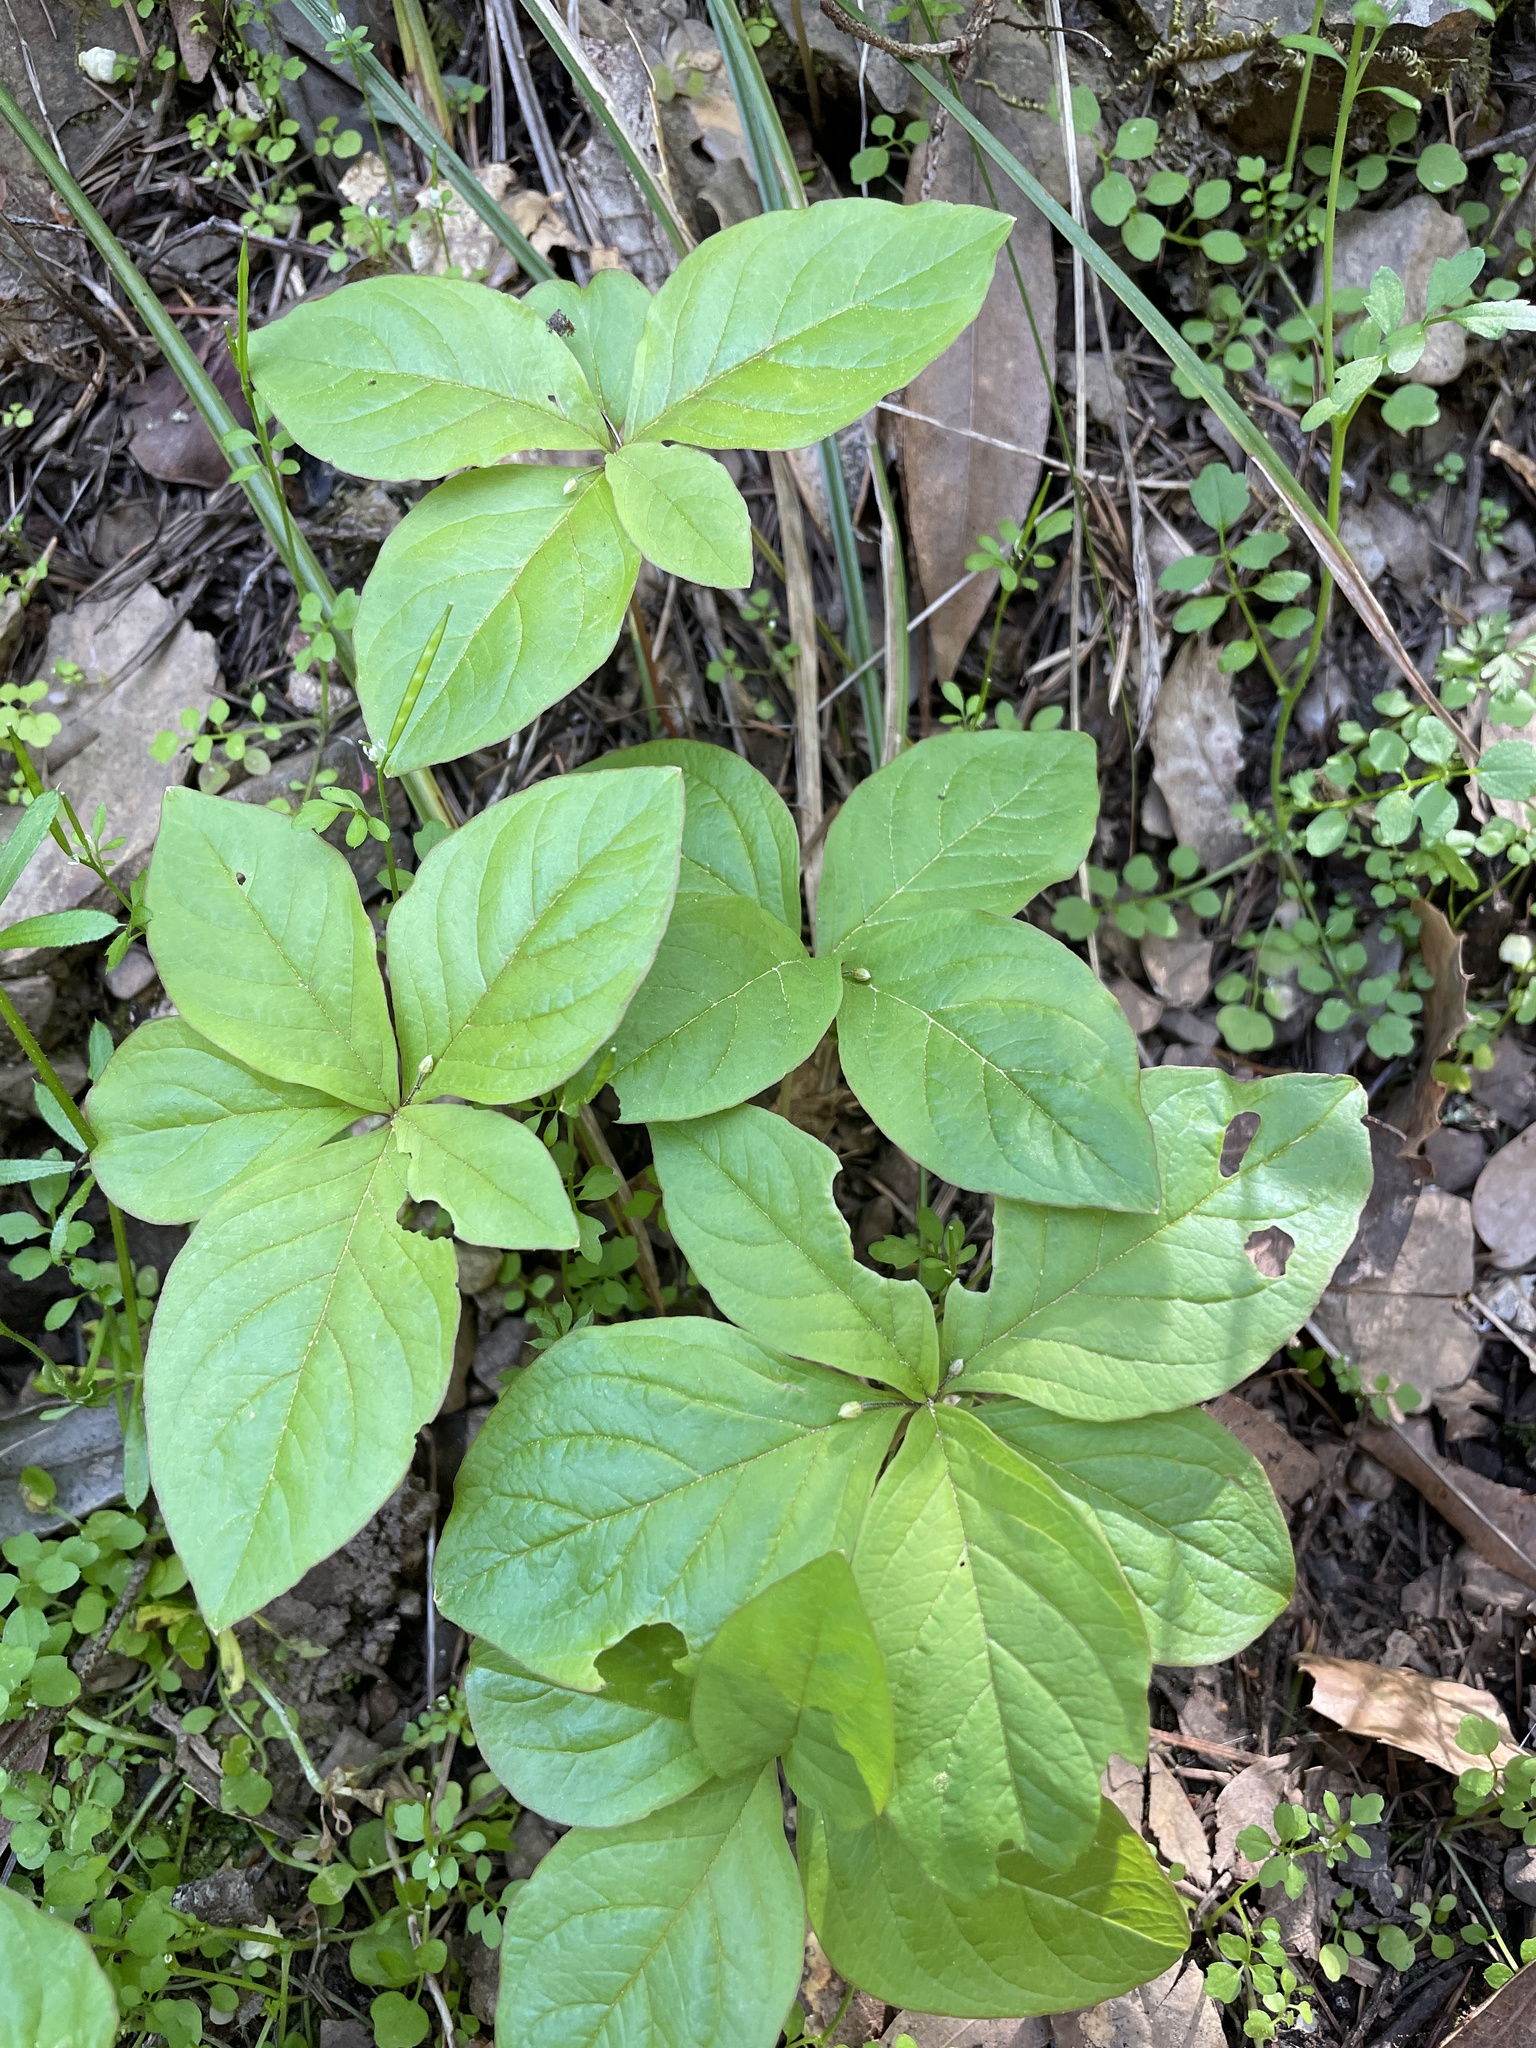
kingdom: Plantae
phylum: Tracheophyta
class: Magnoliopsida
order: Ericales
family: Primulaceae
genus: Lysimachia
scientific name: Lysimachia latifolia
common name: Pacific starflower
